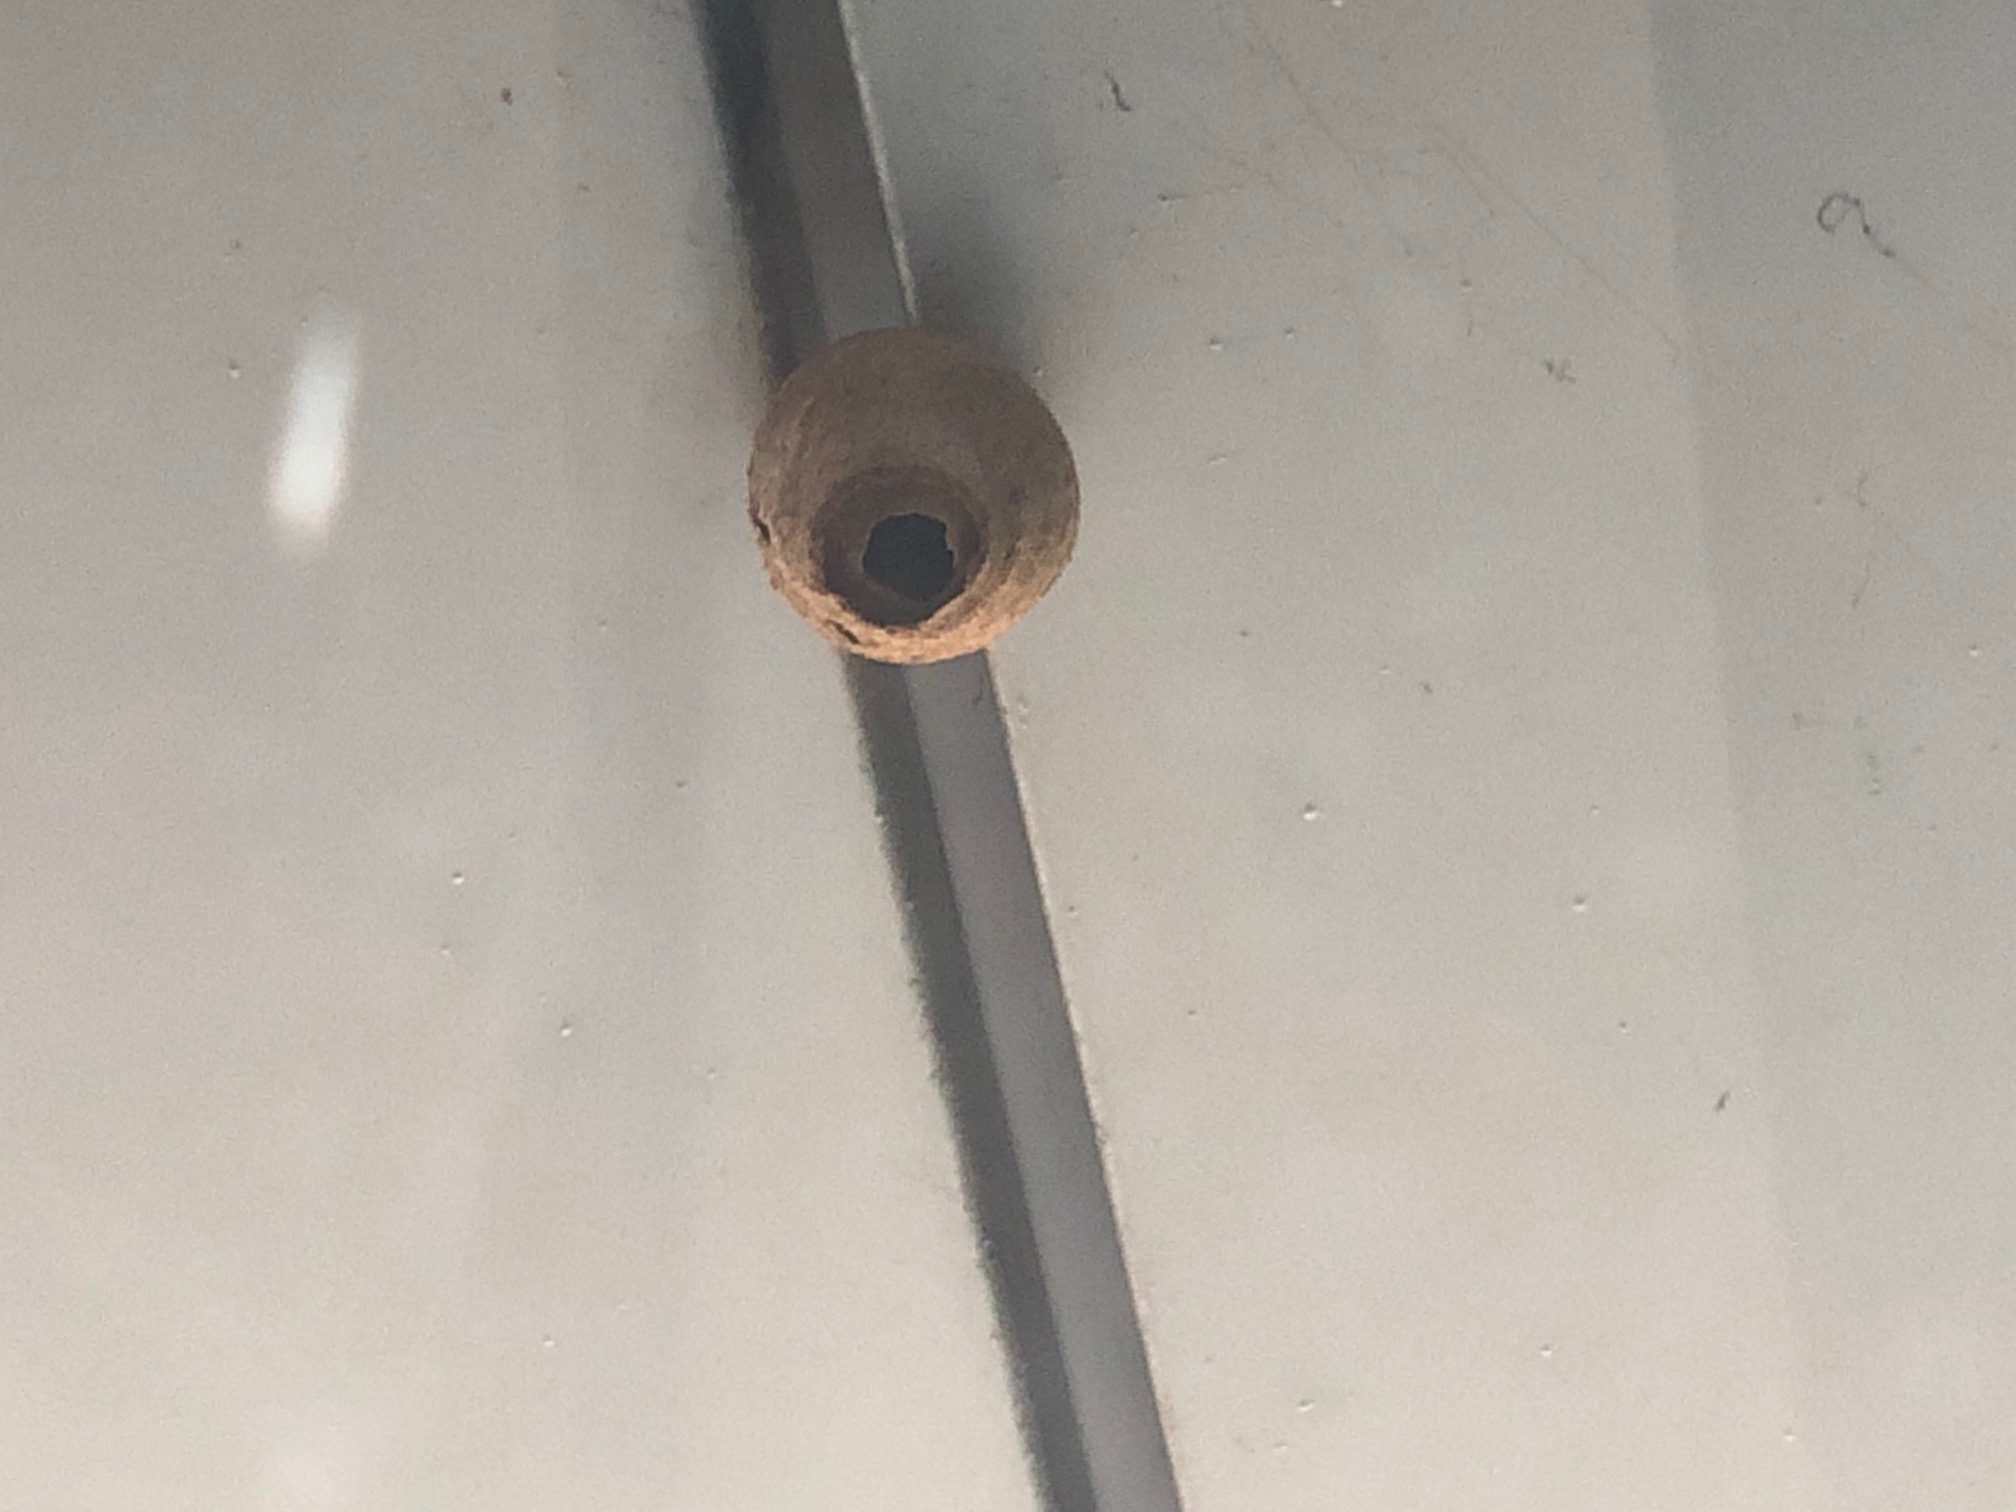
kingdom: Animalia
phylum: Arthropoda
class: Insecta
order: Hymenoptera
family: Vespidae
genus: Vespa
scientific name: Vespa velutina
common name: Asian hornet
